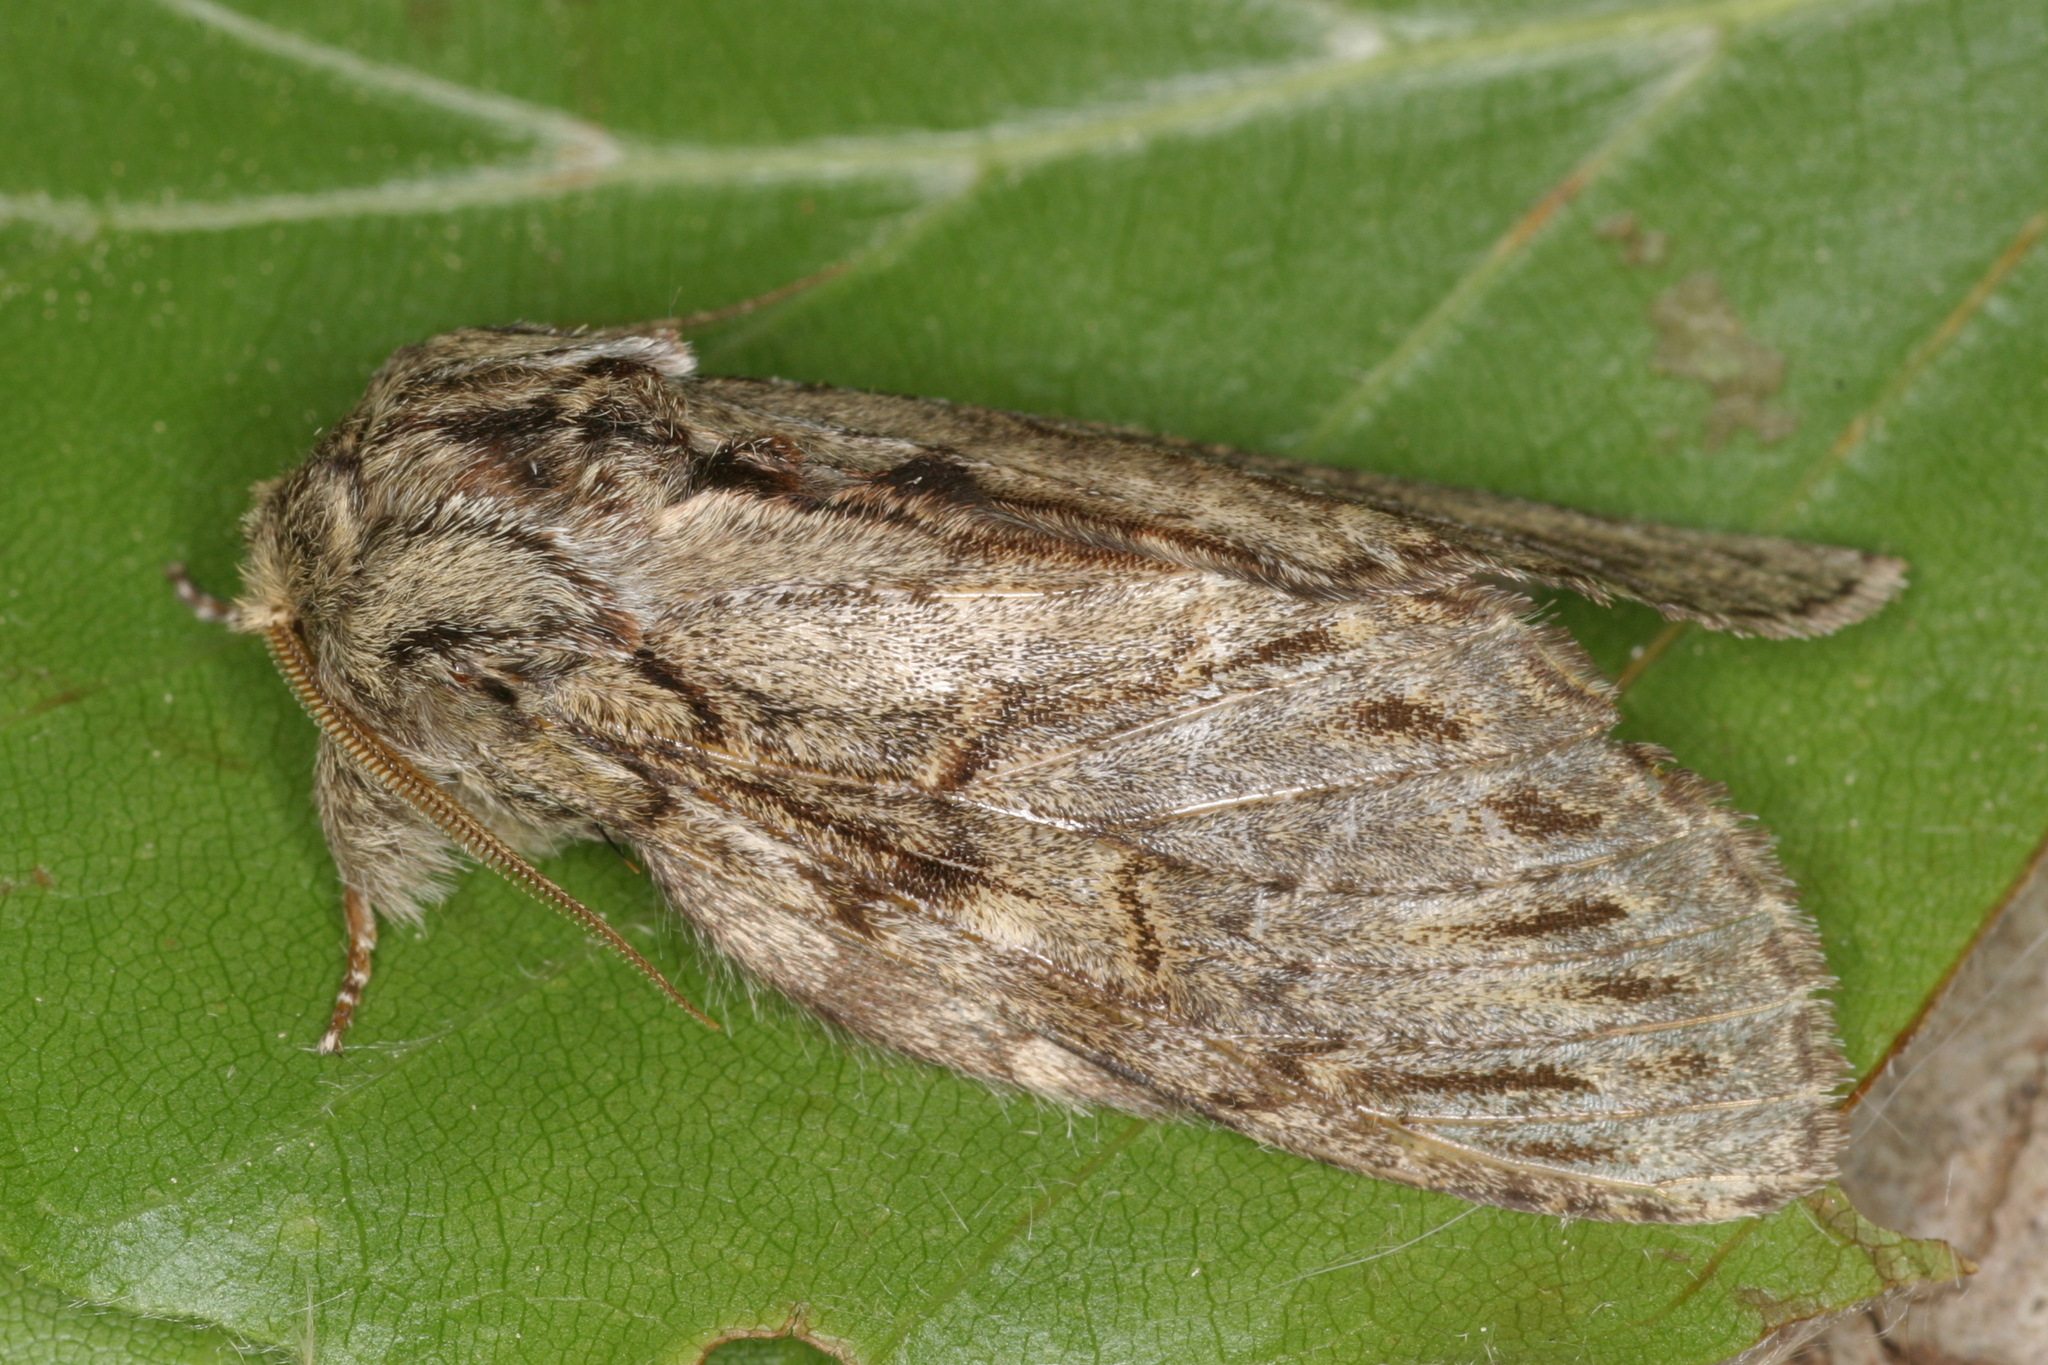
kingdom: Animalia
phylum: Arthropoda
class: Insecta
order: Lepidoptera
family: Notodontidae
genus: Peridea
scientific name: Peridea anceps
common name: Great prominent
